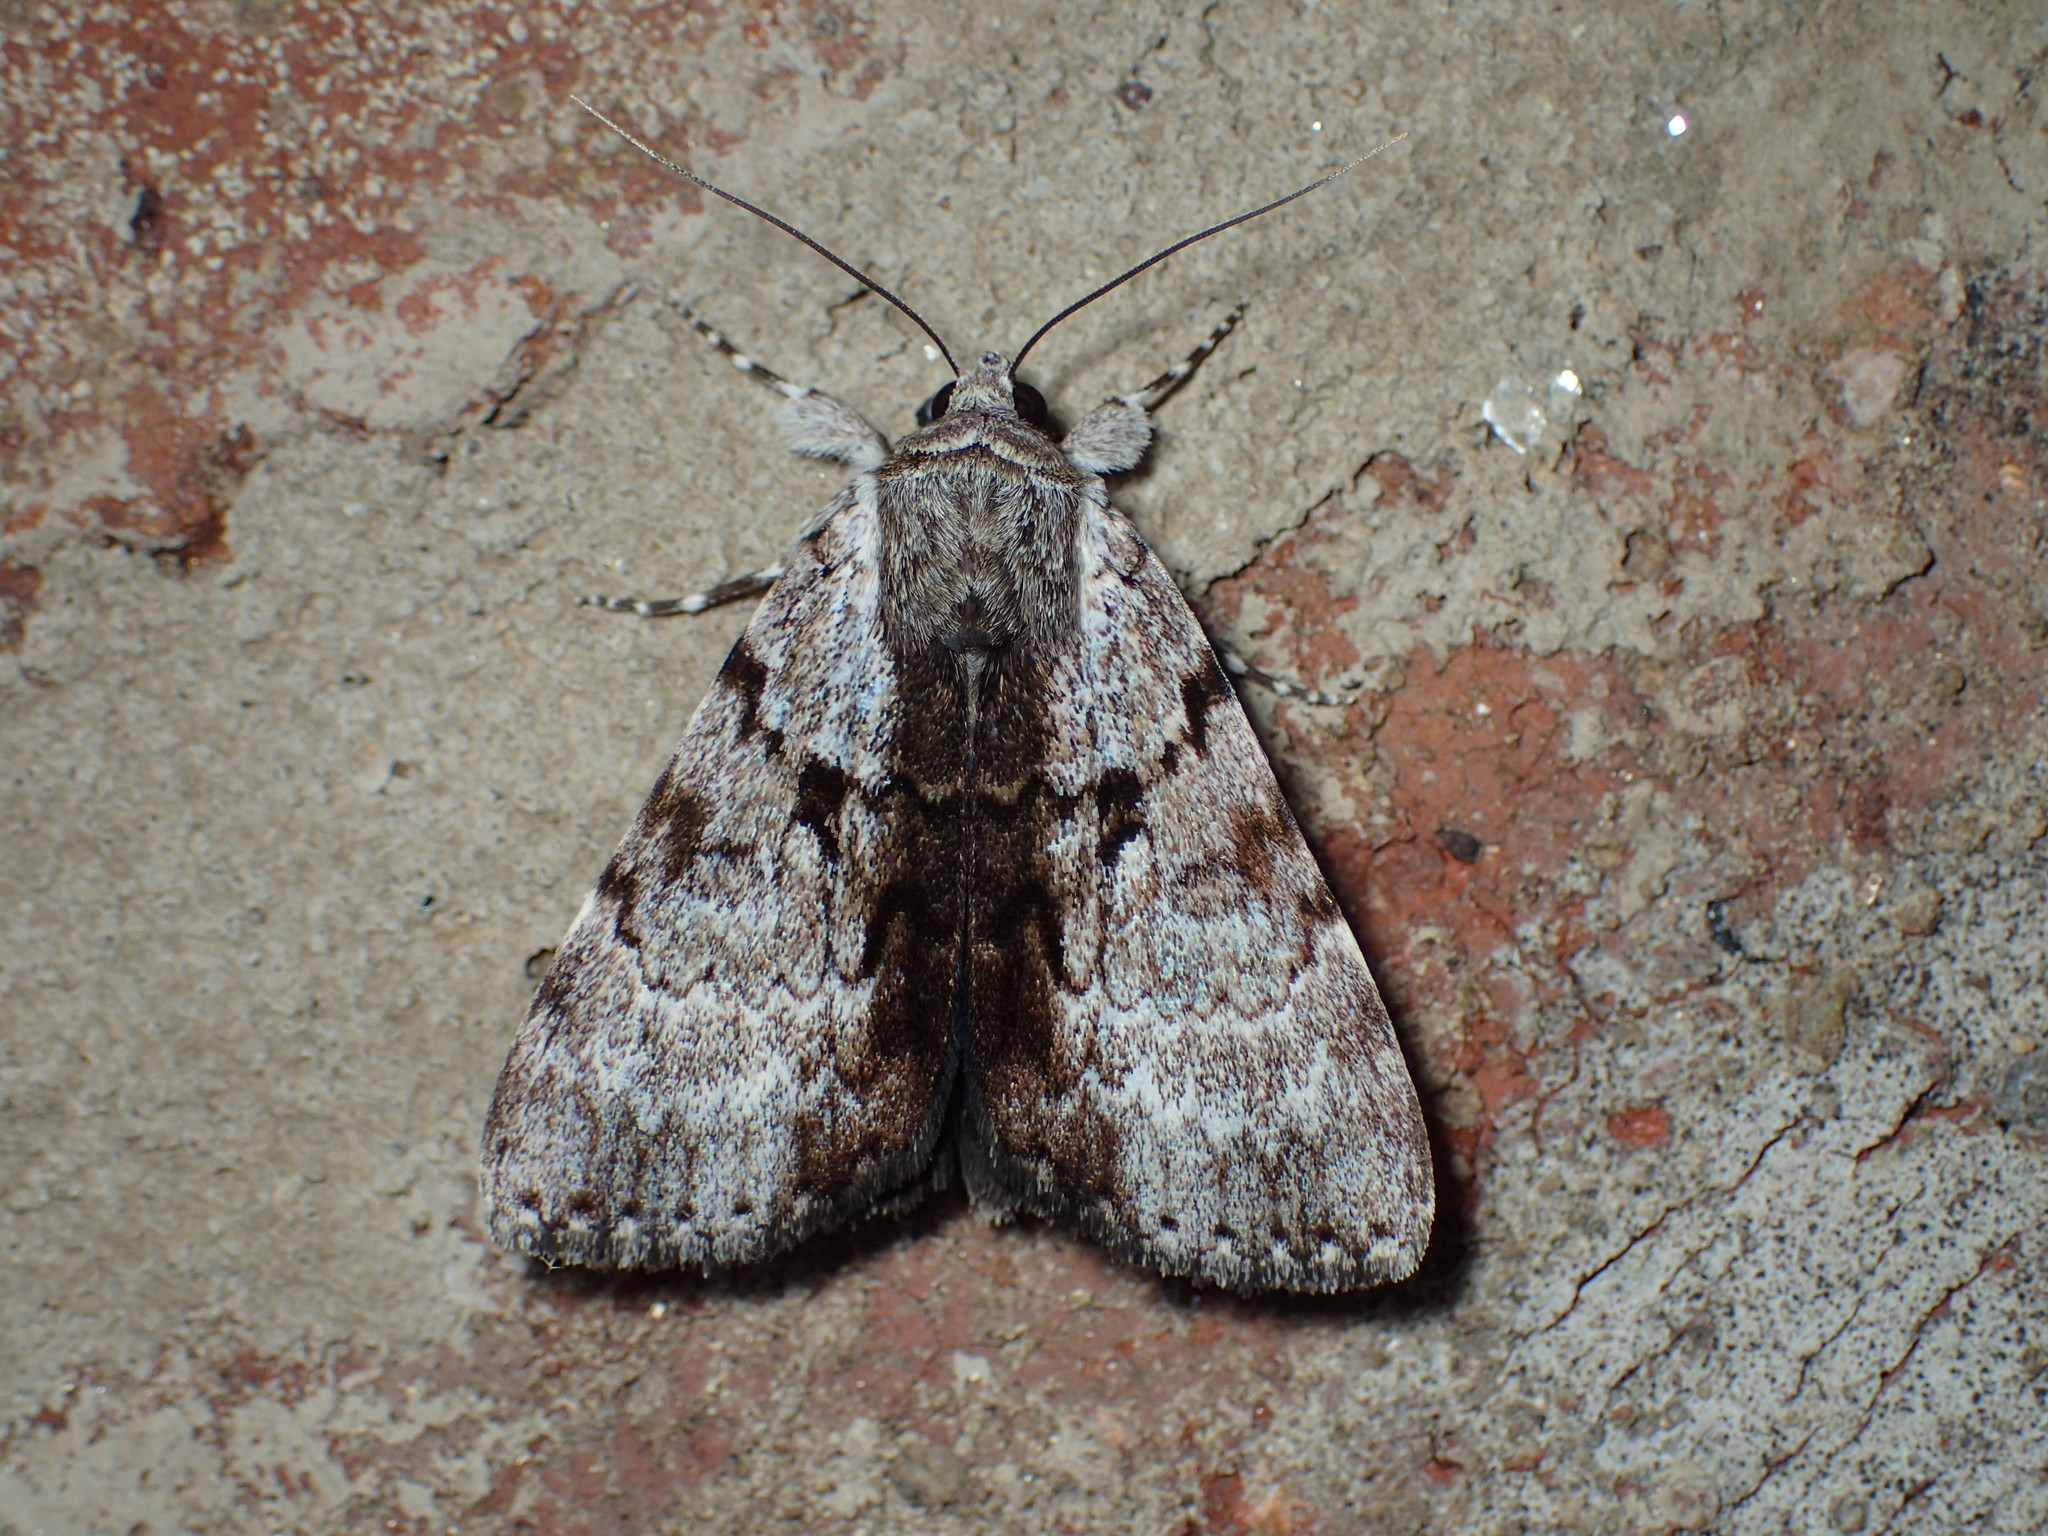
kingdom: Animalia
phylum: Arthropoda
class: Insecta
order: Lepidoptera
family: Erebidae
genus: Catocala
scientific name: Catocala andromedae
